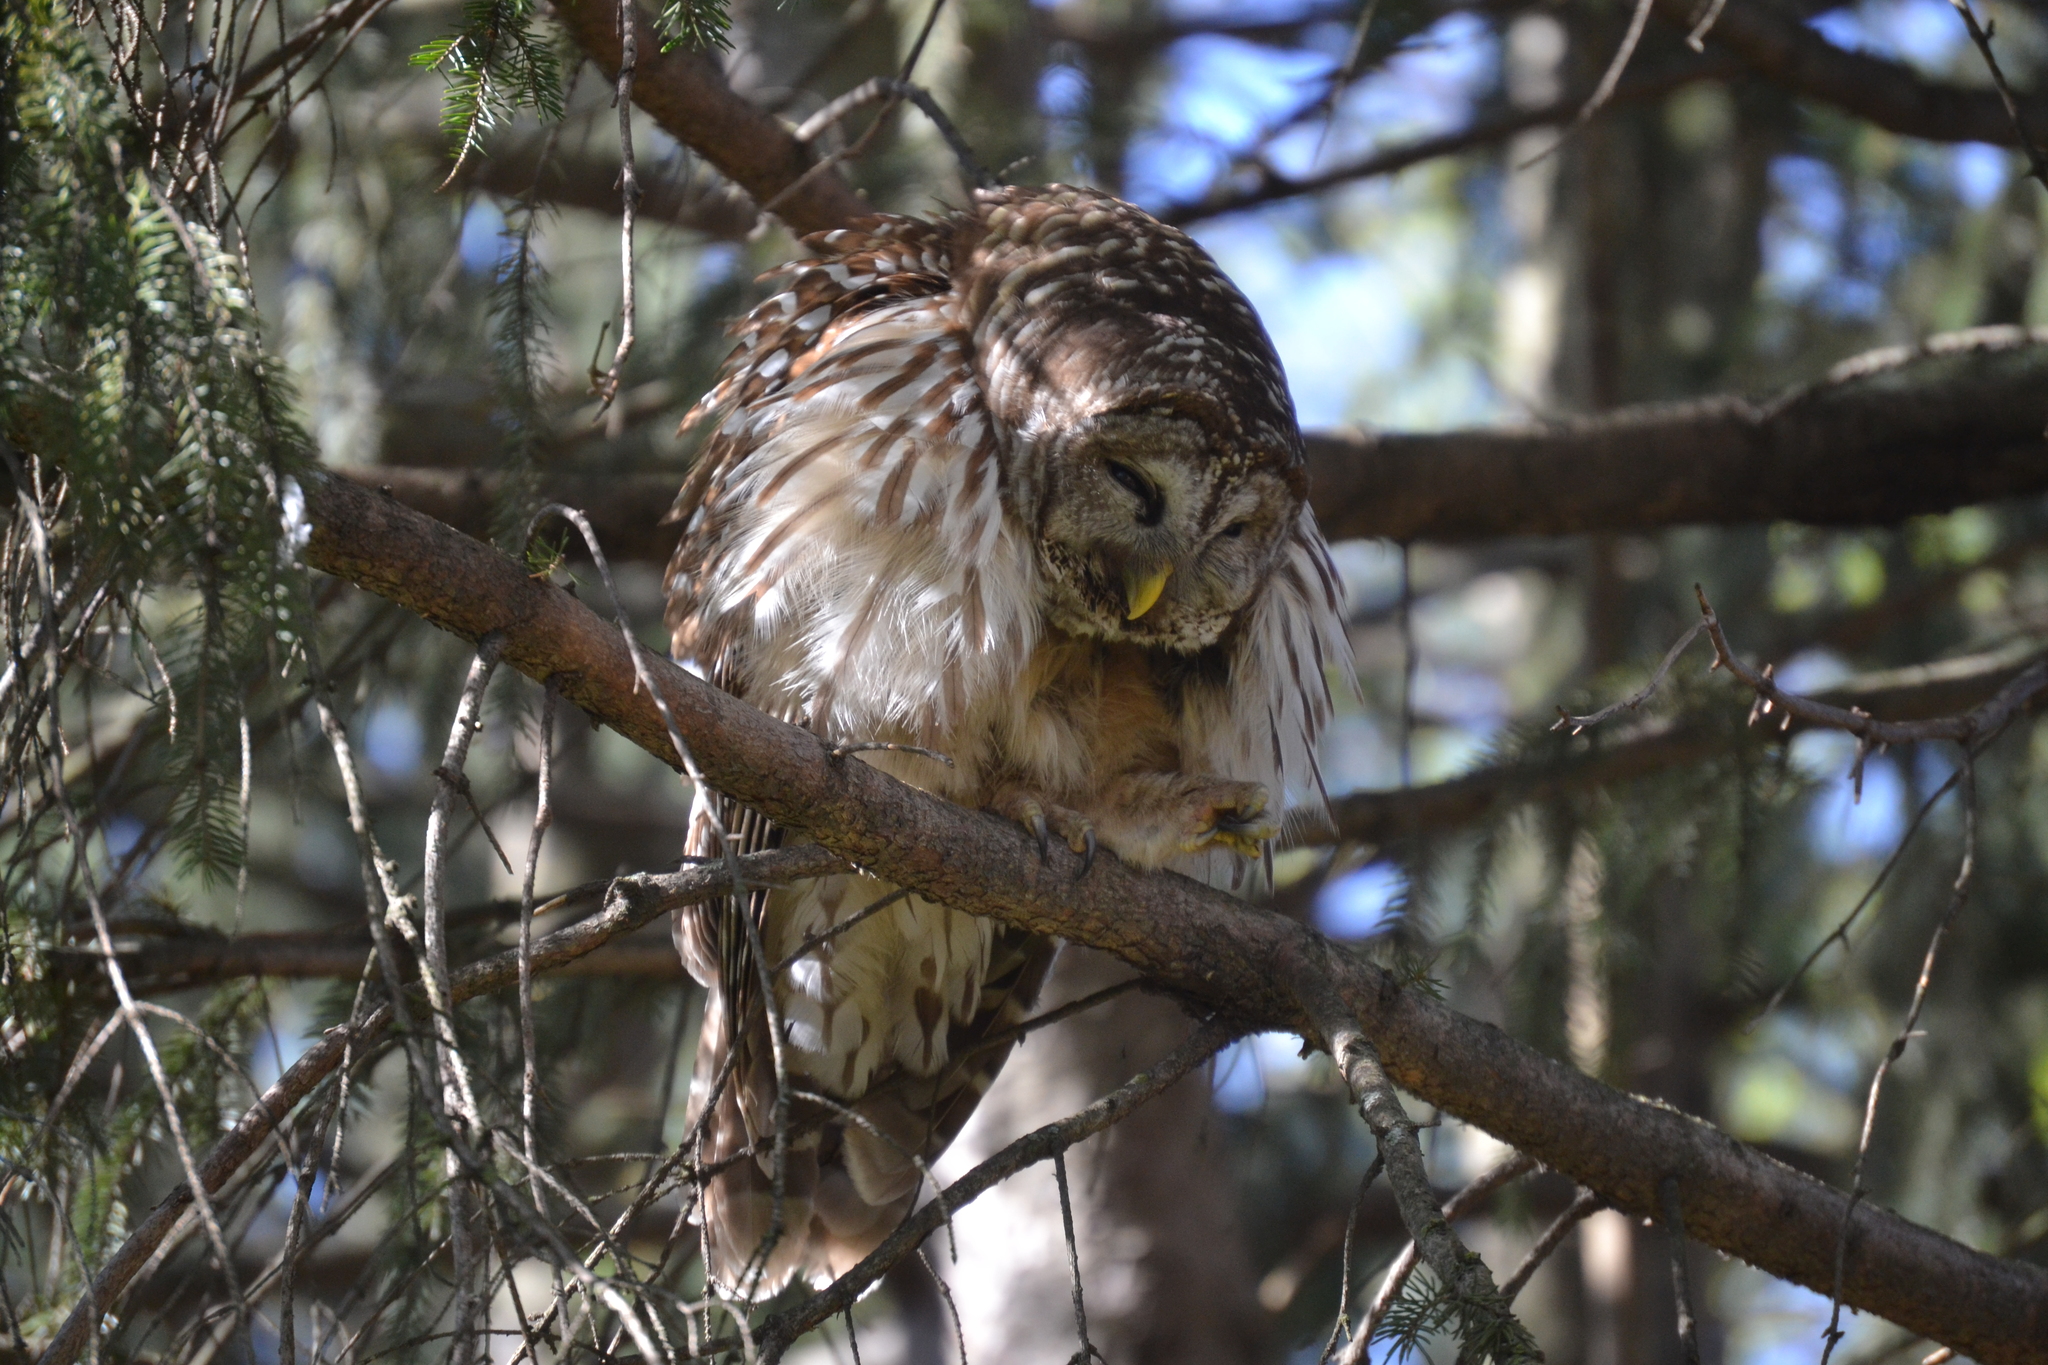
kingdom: Animalia
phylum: Chordata
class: Aves
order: Strigiformes
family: Strigidae
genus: Strix
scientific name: Strix varia
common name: Barred owl
